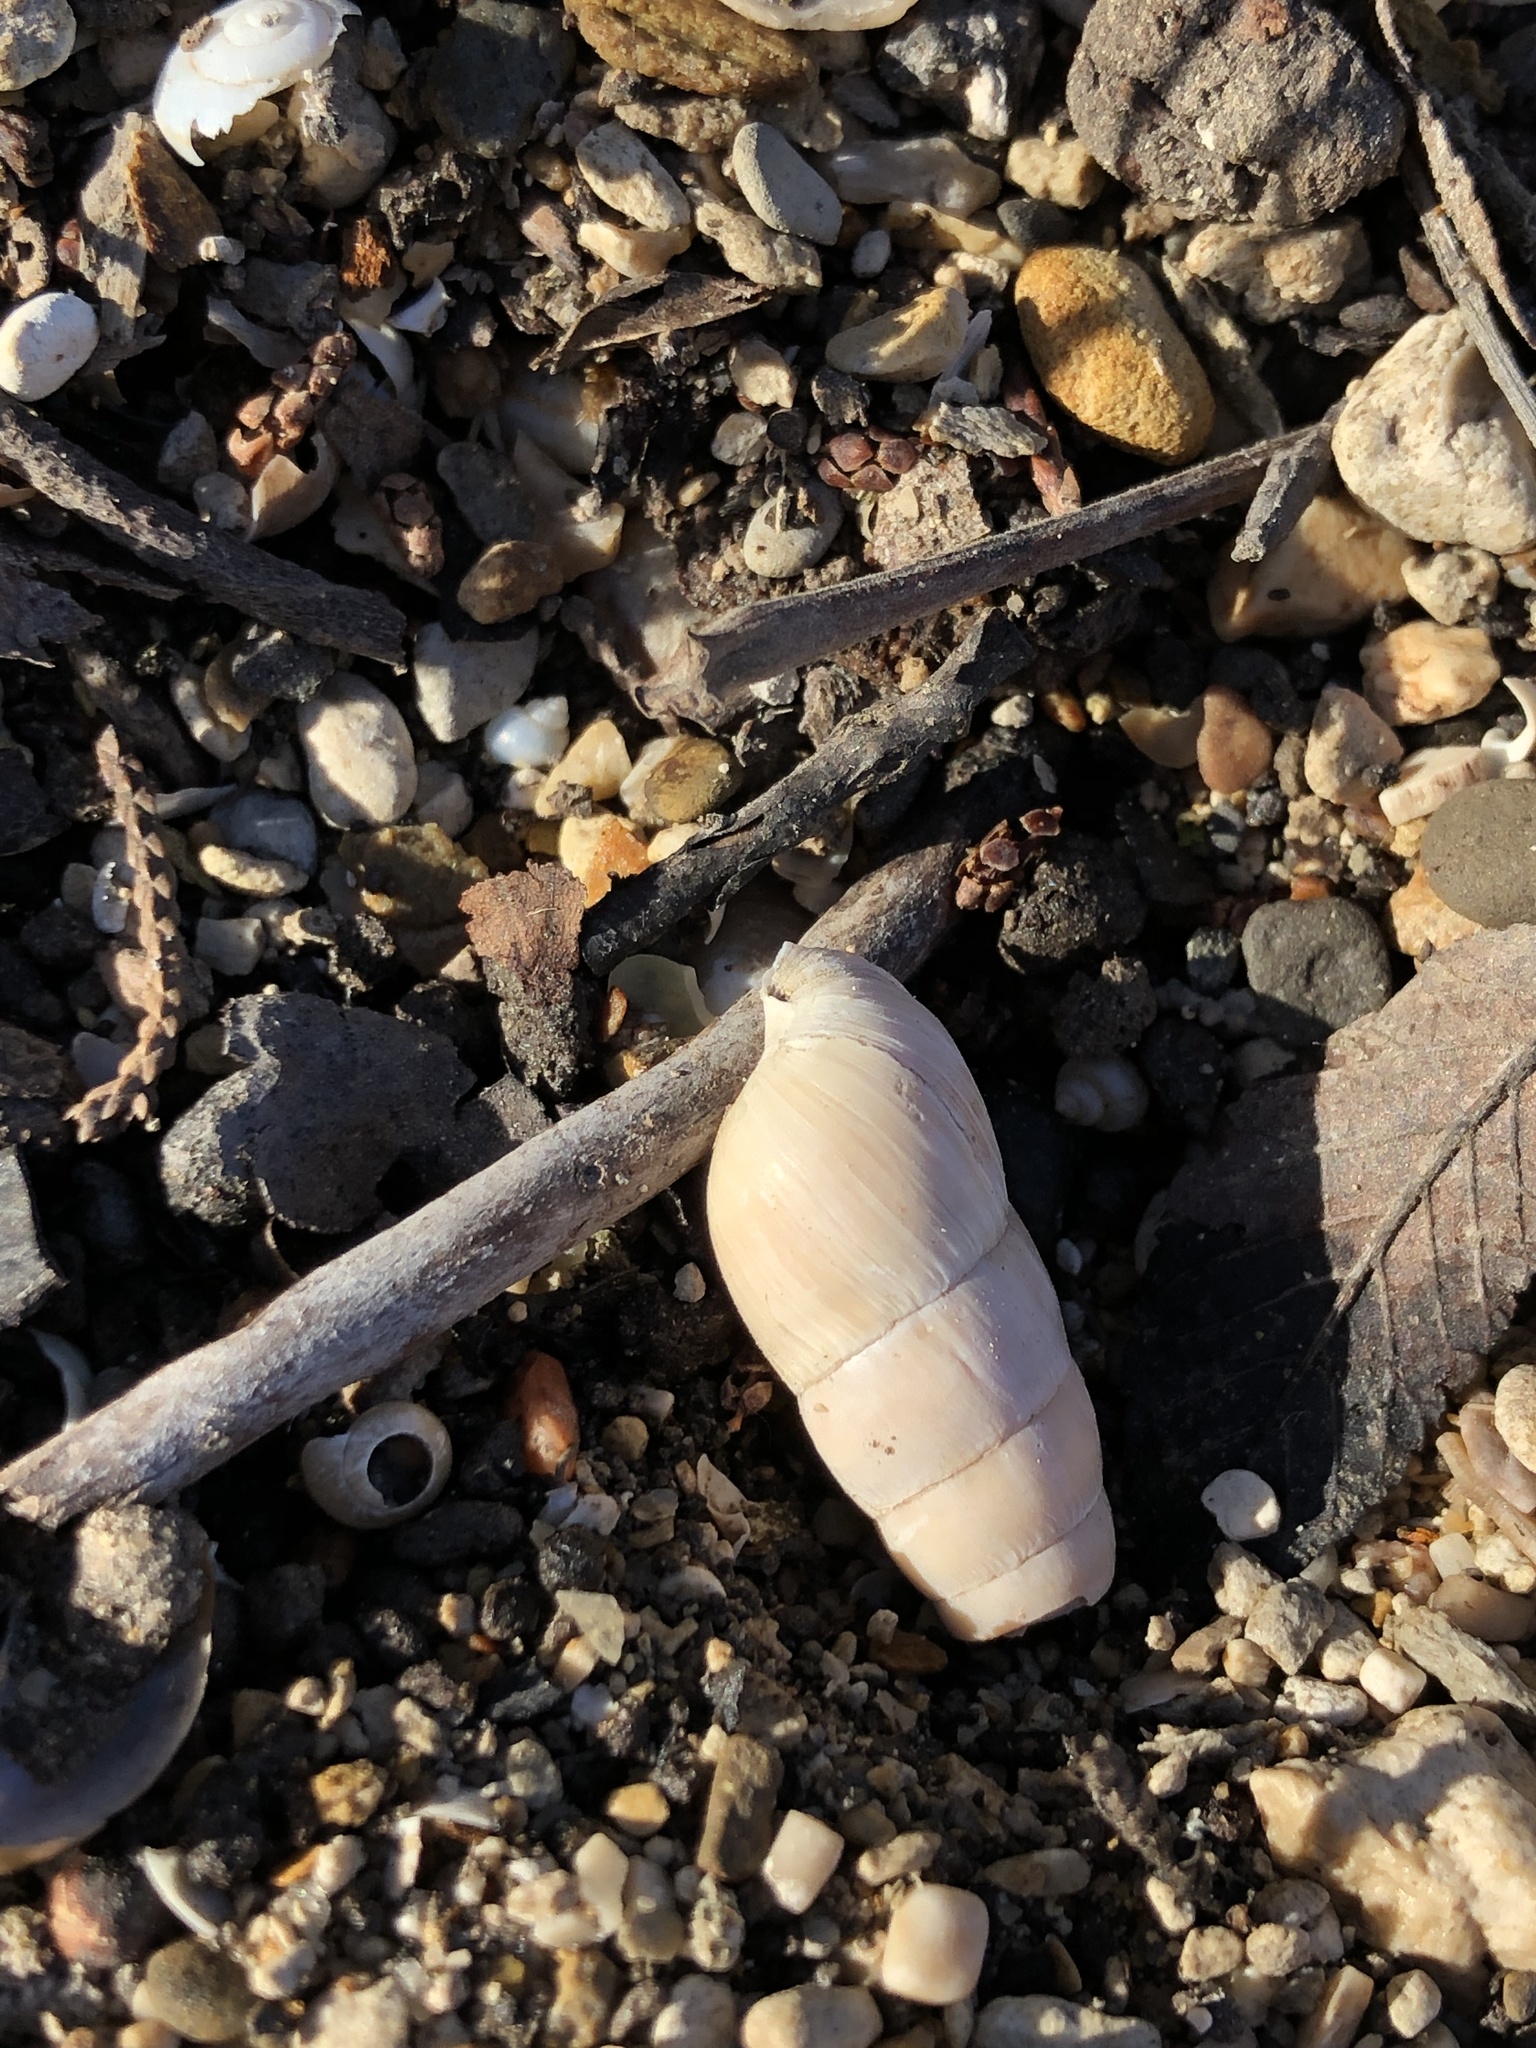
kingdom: Animalia
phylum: Mollusca
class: Gastropoda
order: Stylommatophora
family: Achatinidae
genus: Rumina
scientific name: Rumina decollata
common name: Decollate snail
